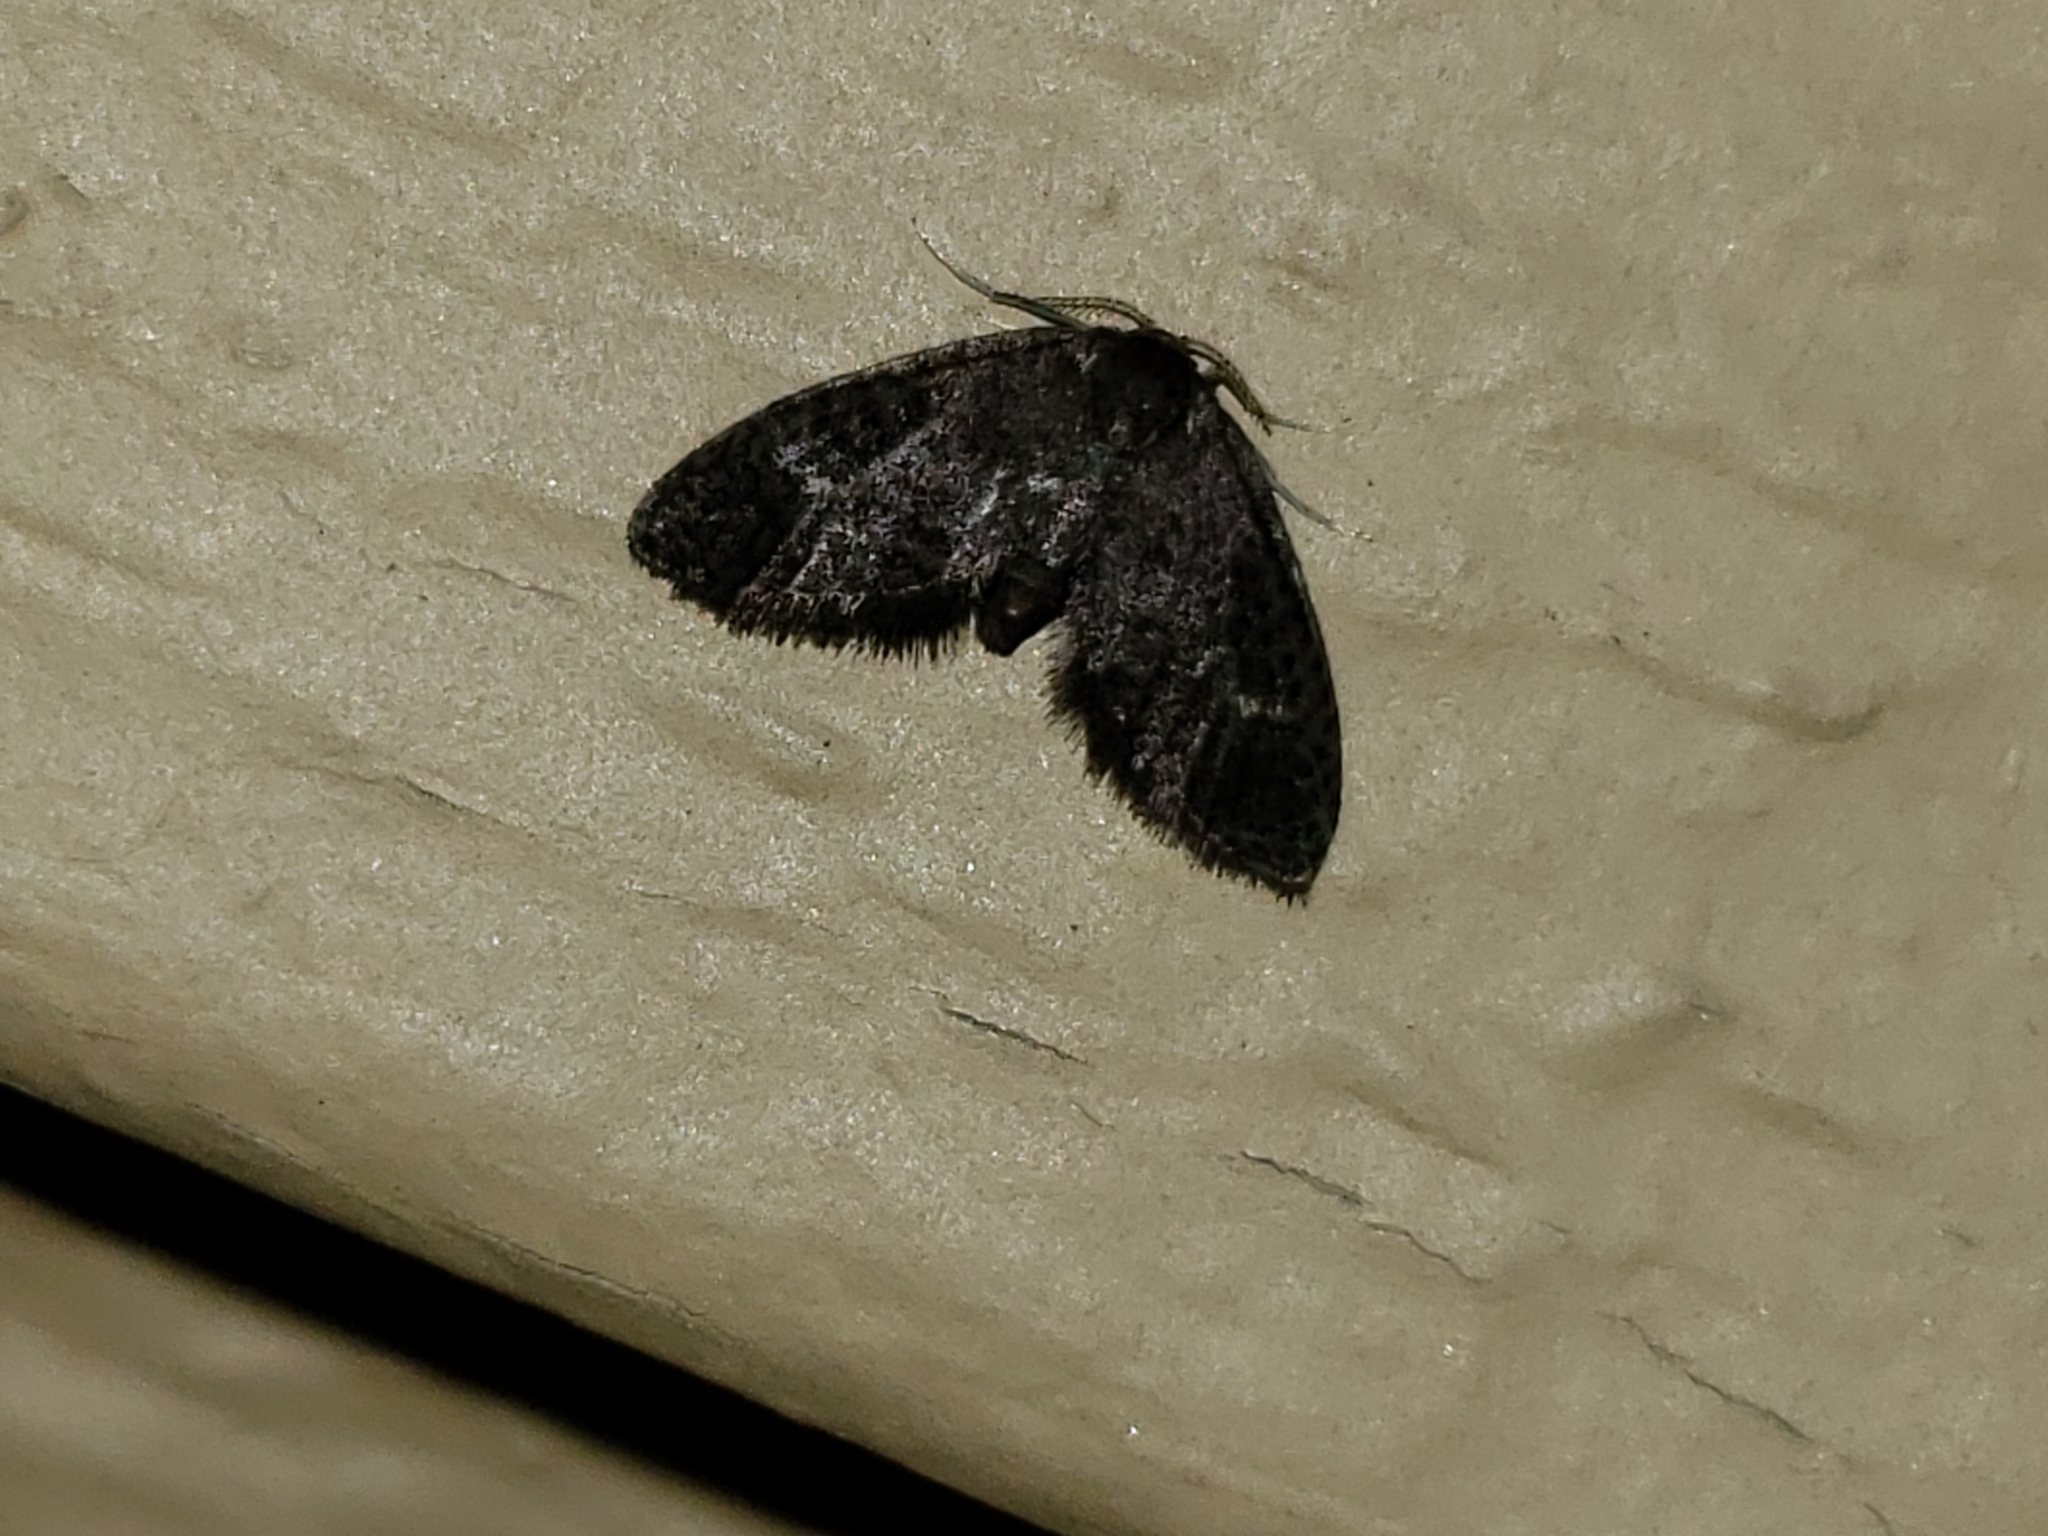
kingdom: Animalia
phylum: Arthropoda
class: Insecta
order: Lepidoptera
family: Epipyropidae
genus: Fulgoraecia
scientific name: Fulgoraecia exigua
